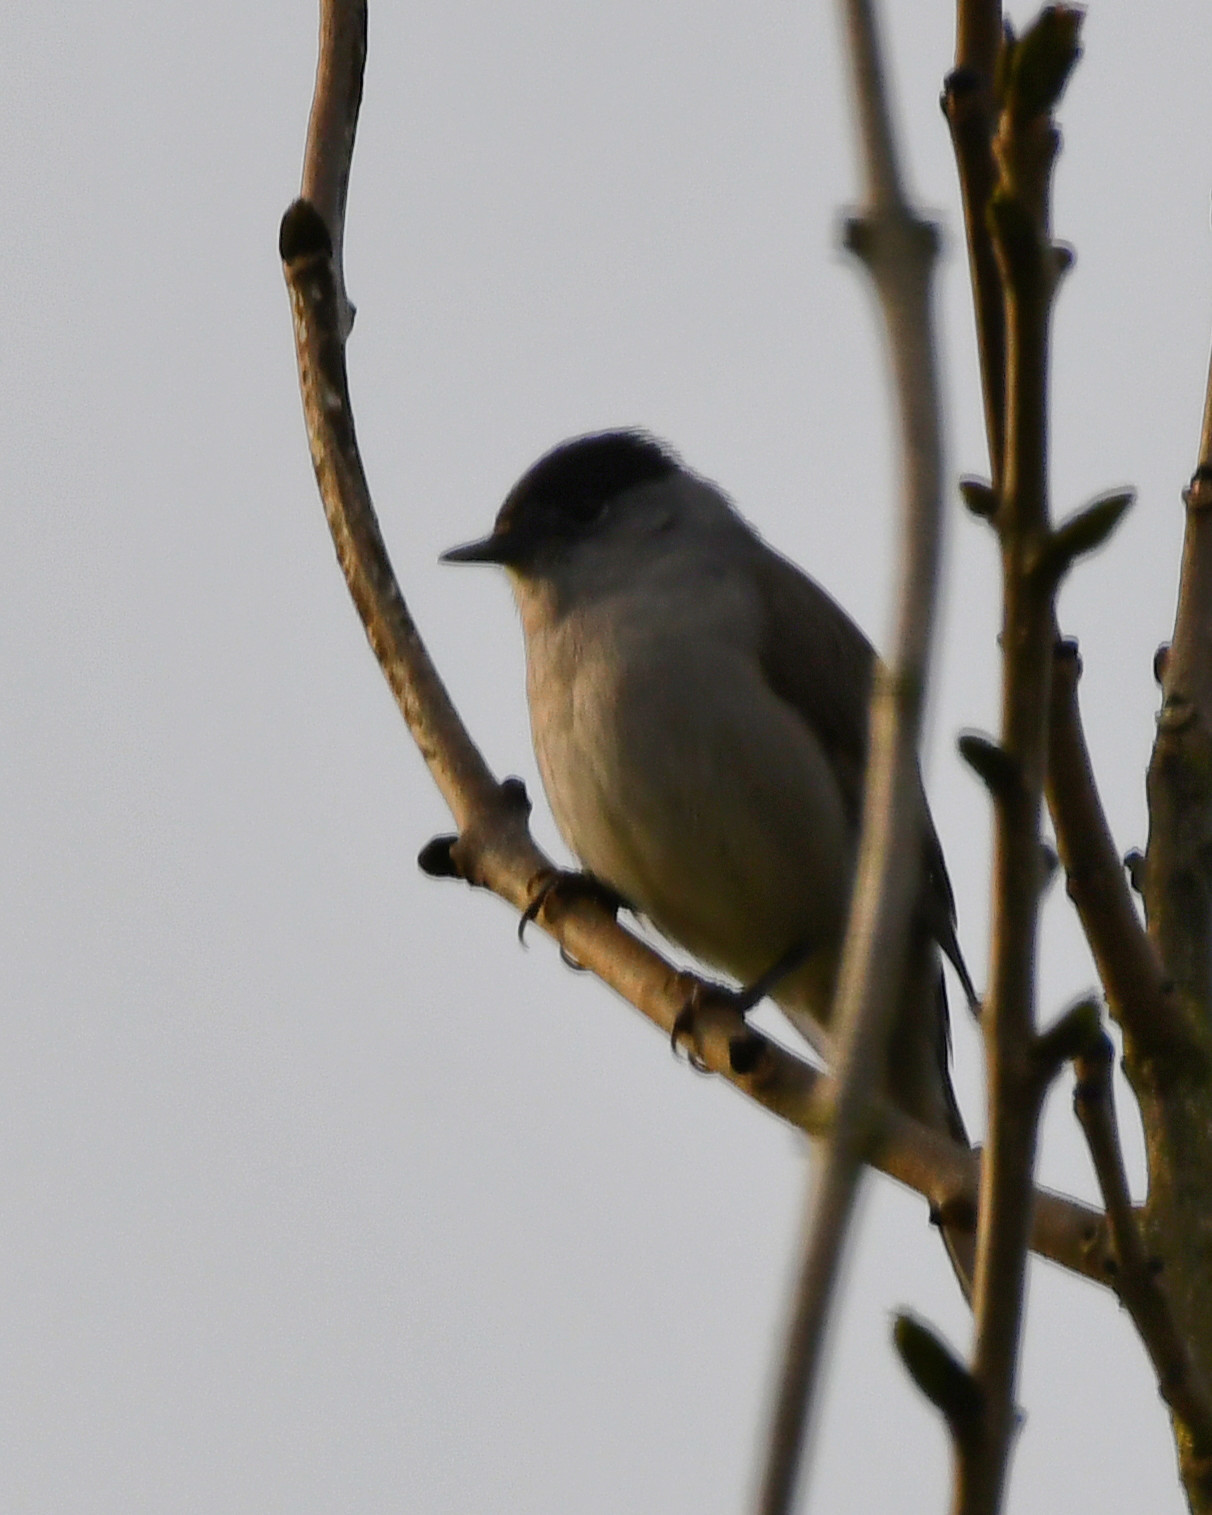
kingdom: Animalia
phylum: Chordata
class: Aves
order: Passeriformes
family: Sylviidae
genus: Sylvia
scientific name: Sylvia atricapilla
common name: Eurasian blackcap
